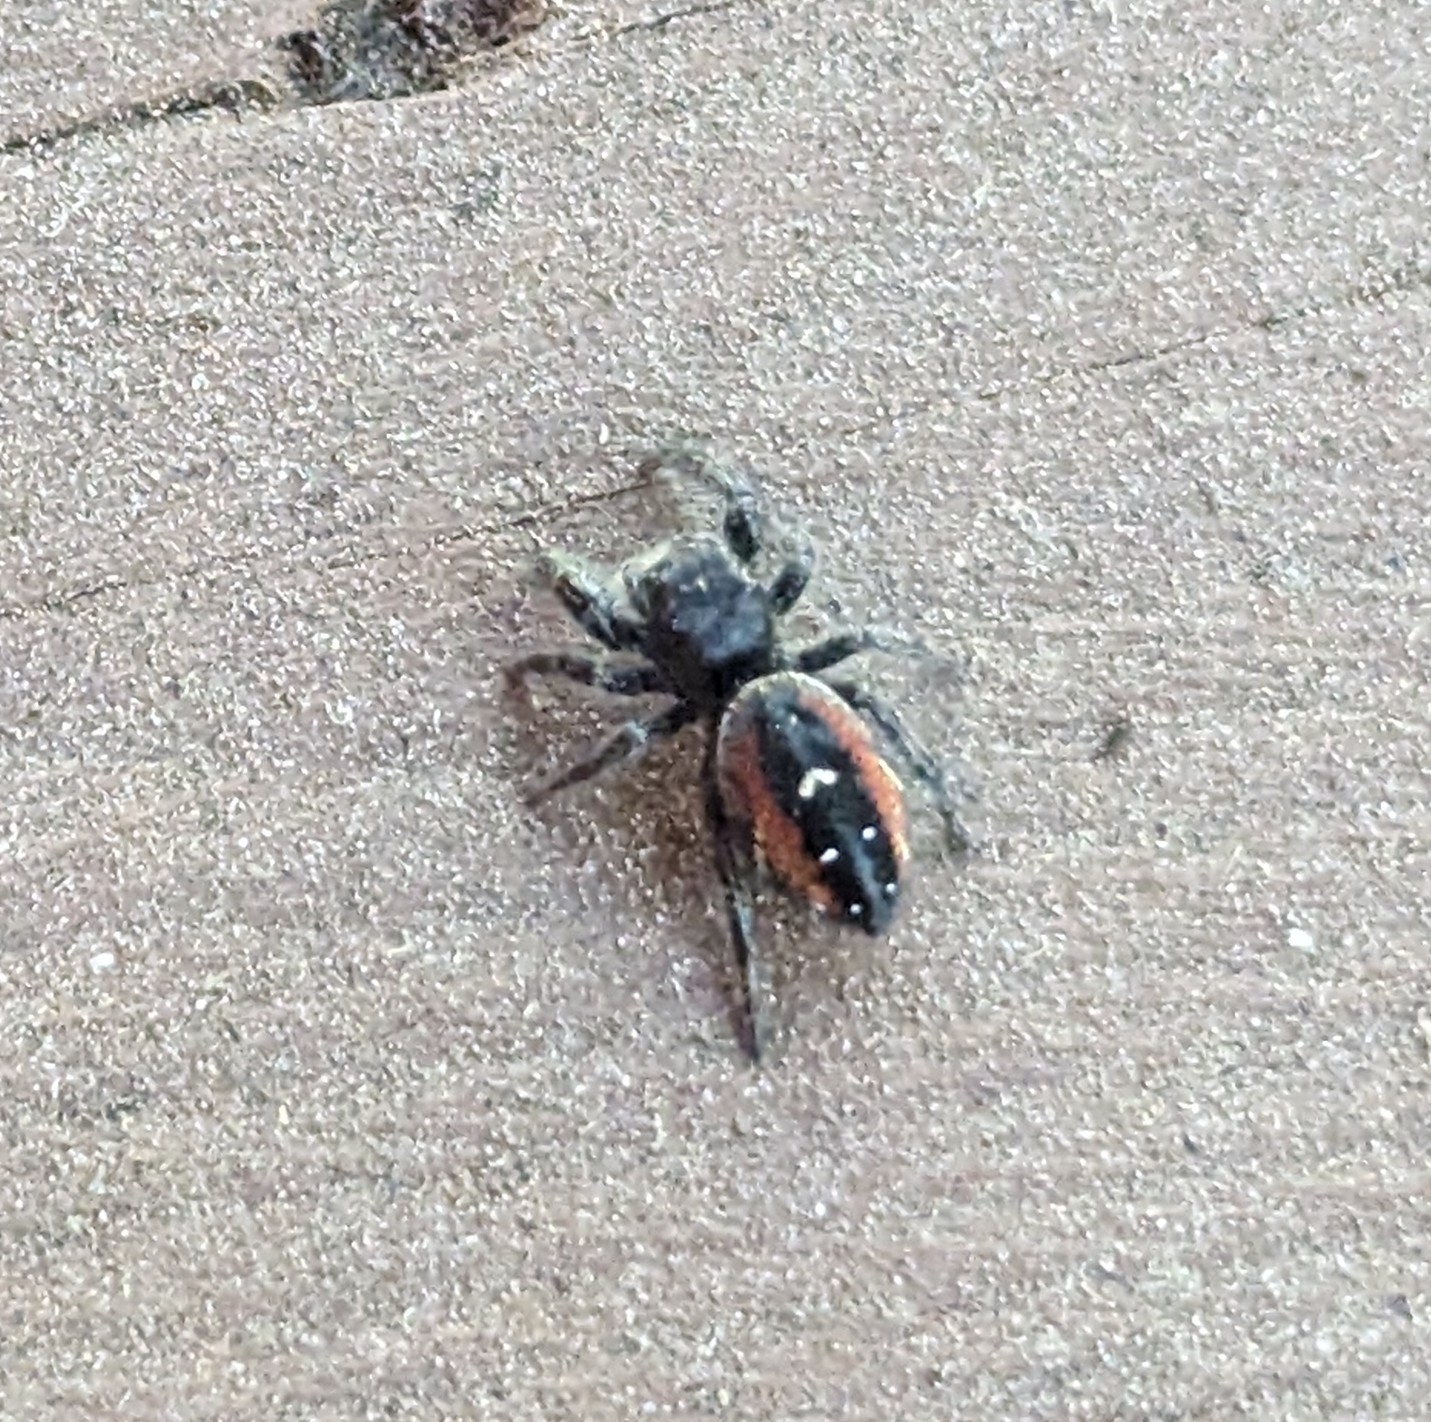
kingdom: Animalia
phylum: Arthropoda
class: Arachnida
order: Araneae
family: Salticidae
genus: Phidippus
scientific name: Phidippus johnsoni
